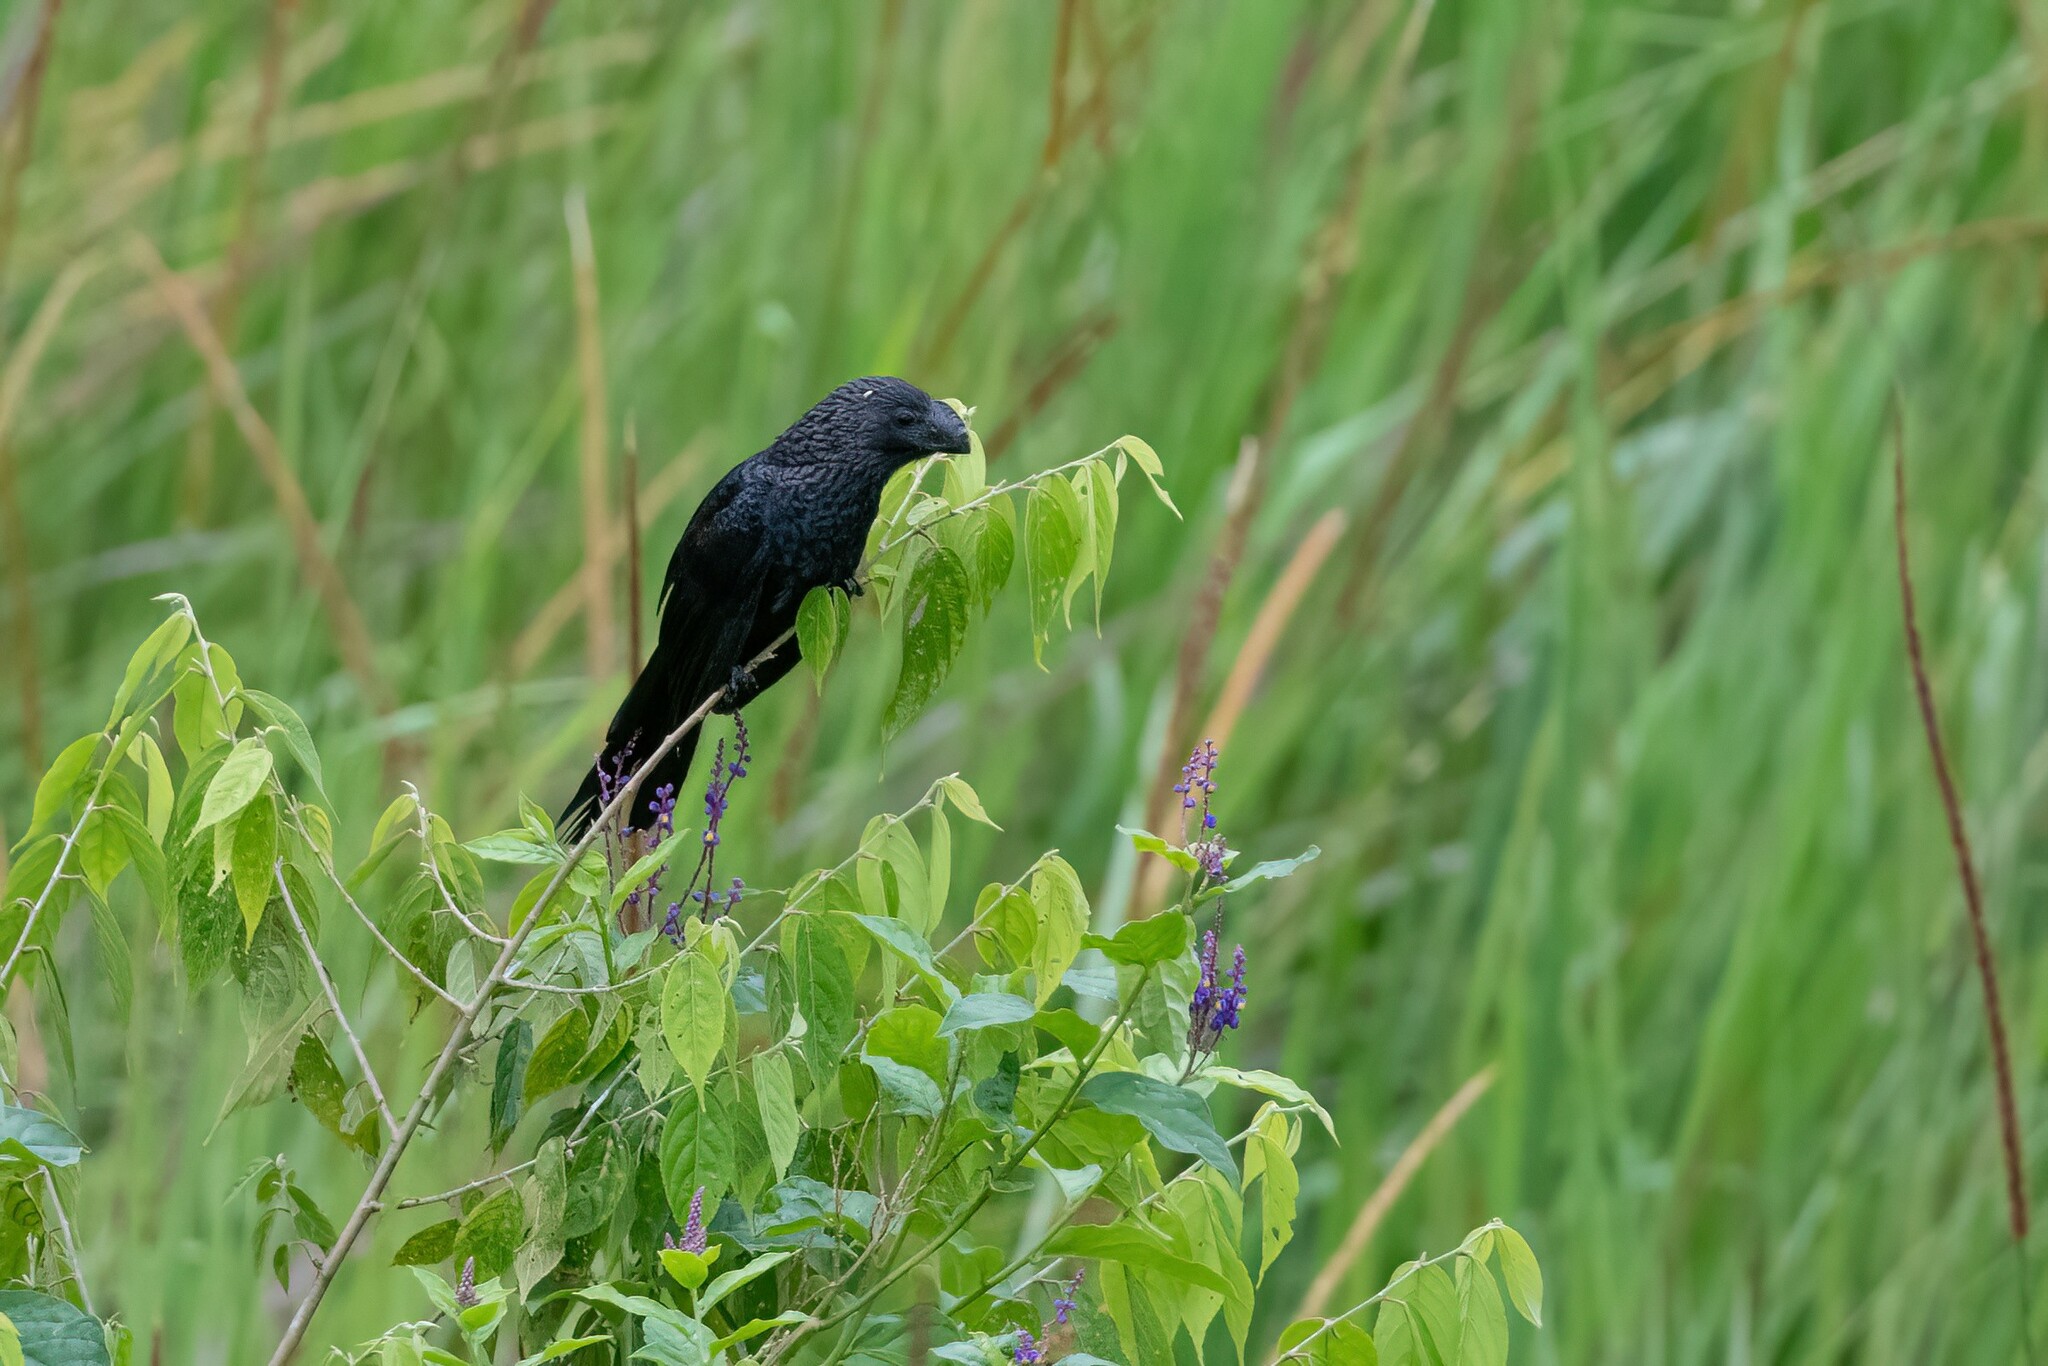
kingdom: Animalia
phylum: Chordata
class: Aves
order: Cuculiformes
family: Cuculidae
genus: Crotophaga
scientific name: Crotophaga ani
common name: Smooth-billed ani
